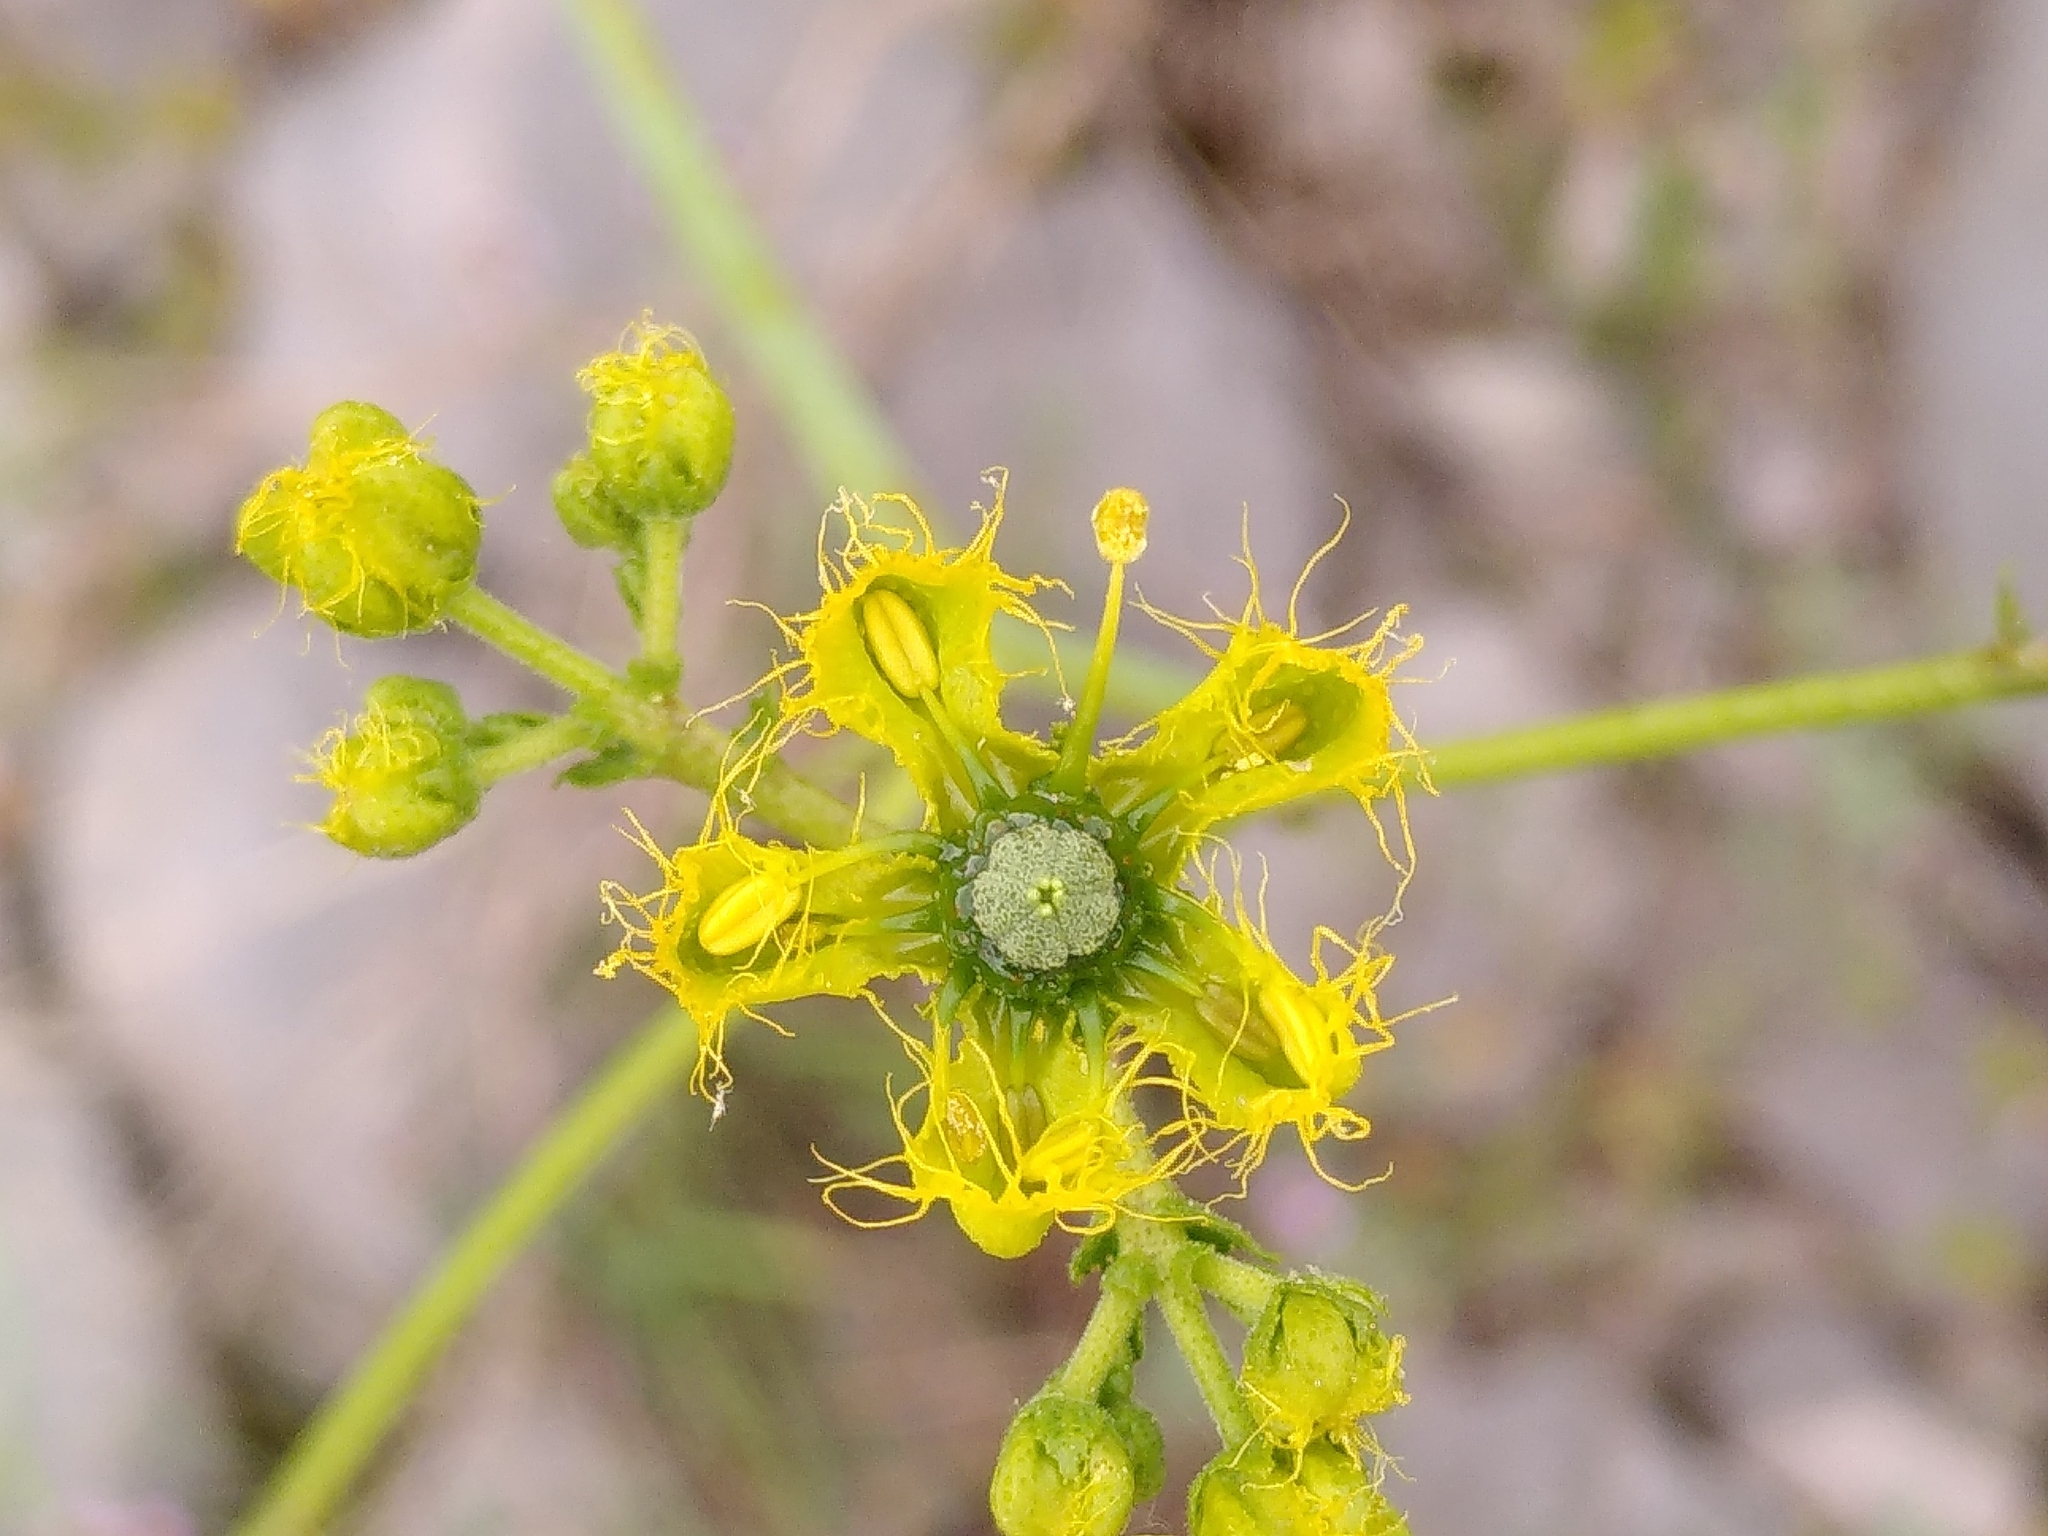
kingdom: Plantae
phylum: Tracheophyta
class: Magnoliopsida
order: Sapindales
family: Rutaceae
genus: Ruta
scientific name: Ruta angustifolia
